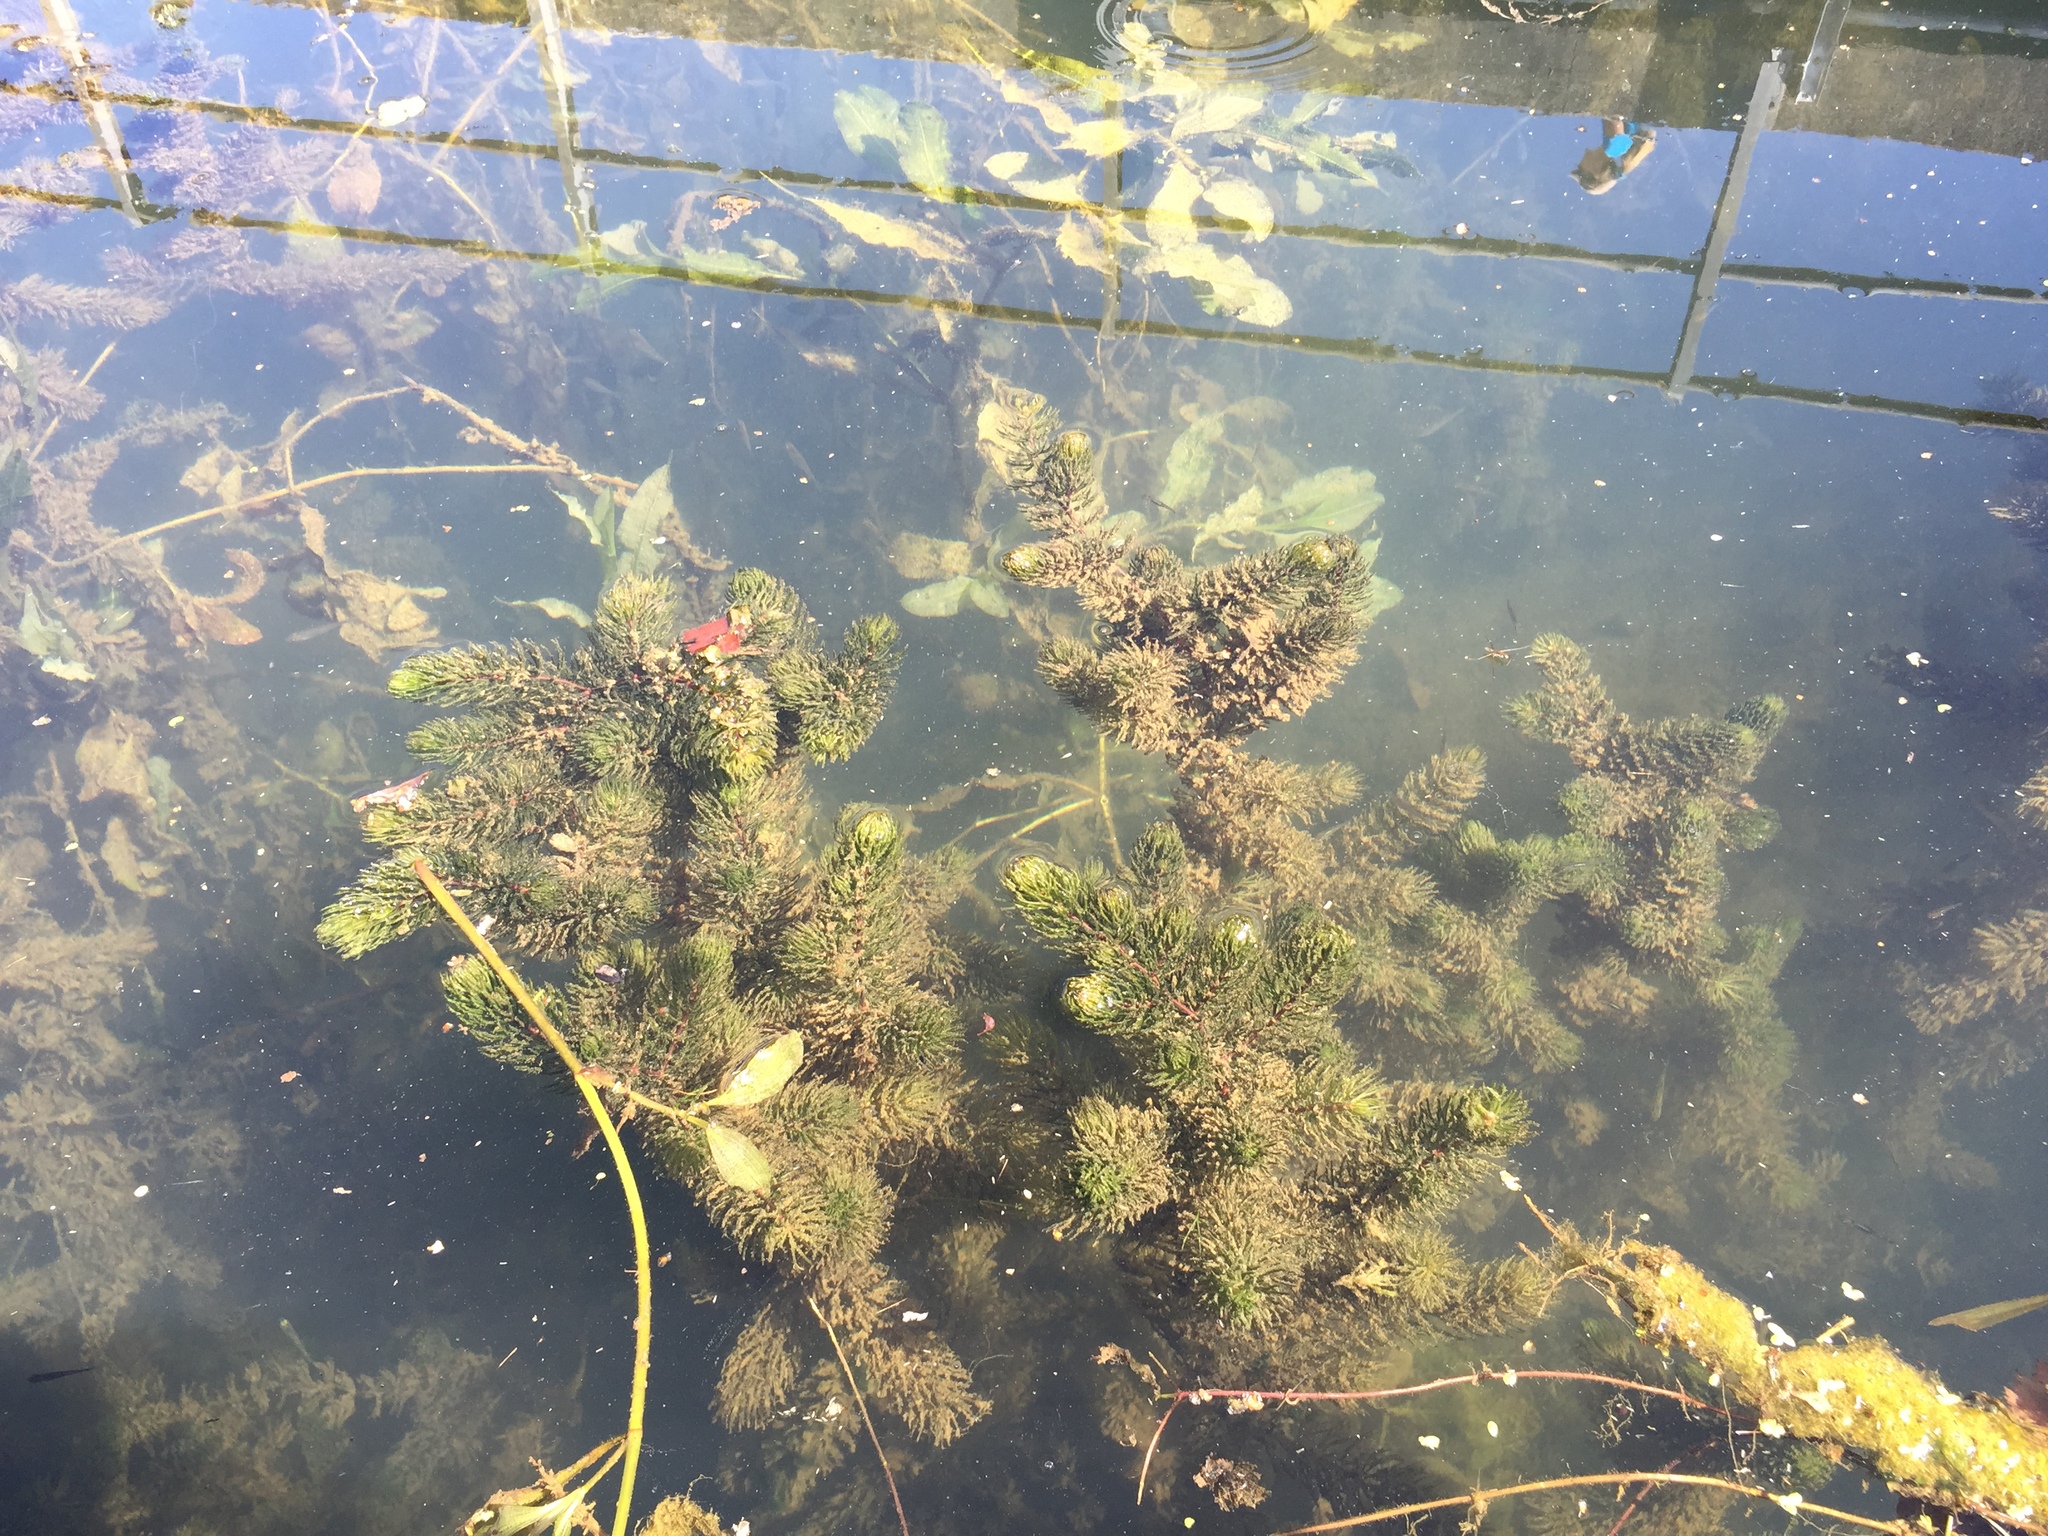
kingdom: Plantae
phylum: Tracheophyta
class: Magnoliopsida
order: Ceratophyllales
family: Ceratophyllaceae
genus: Ceratophyllum
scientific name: Ceratophyllum demersum
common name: Rigid hornwort
